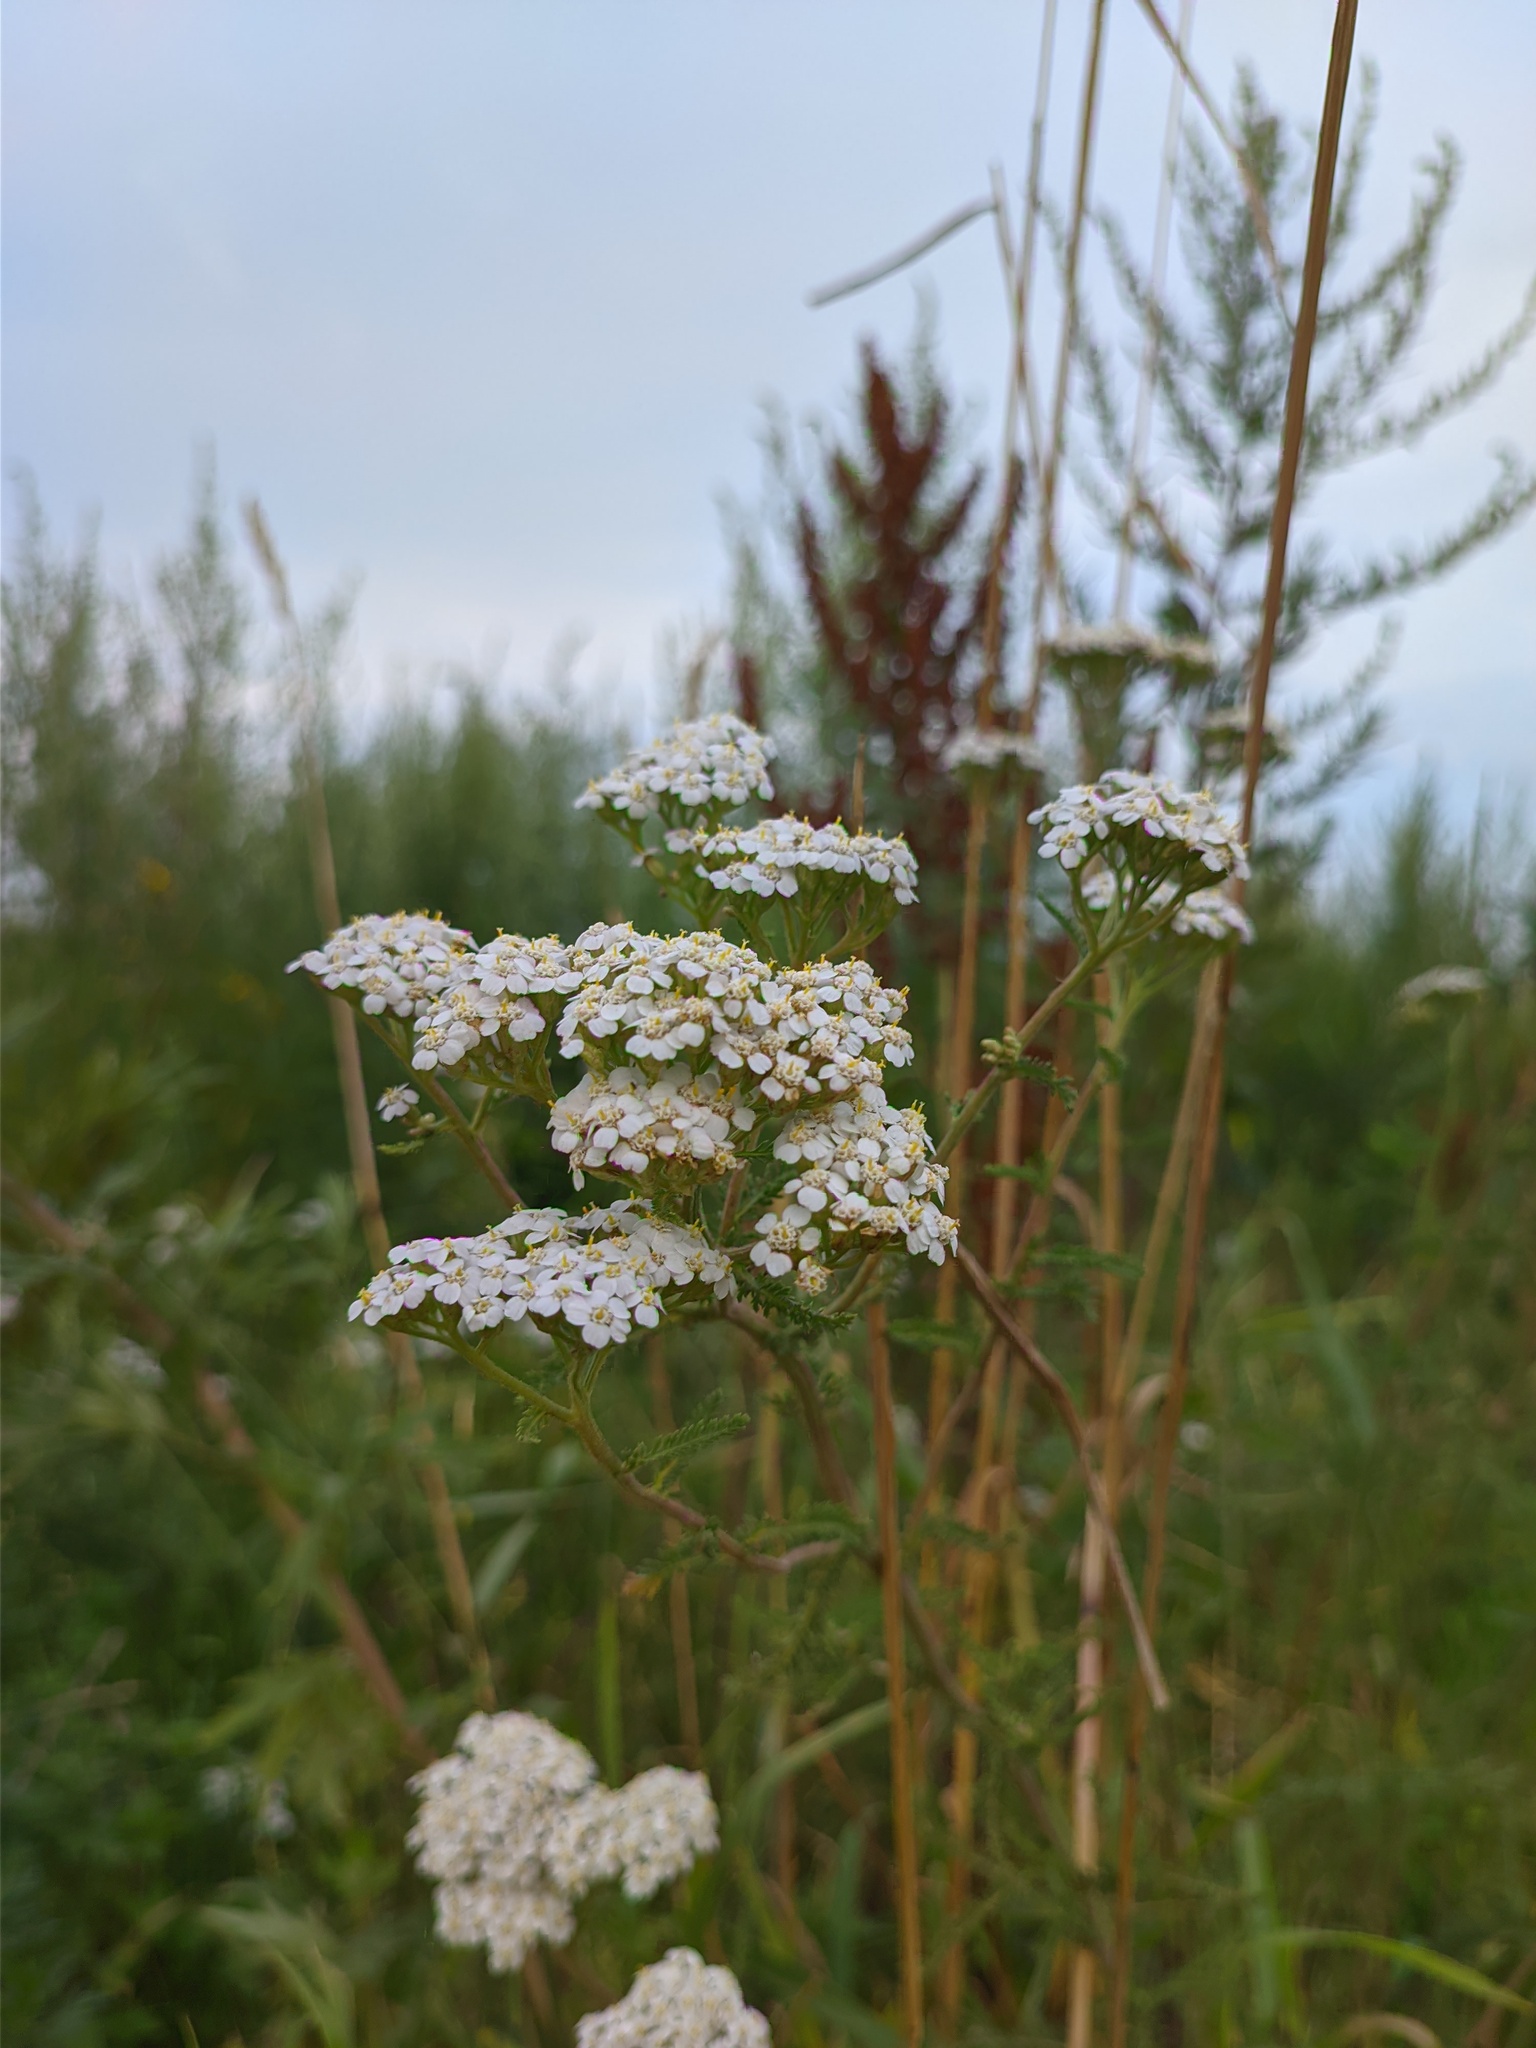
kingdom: Plantae
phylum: Tracheophyta
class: Magnoliopsida
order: Asterales
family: Asteraceae
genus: Achillea
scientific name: Achillea millefolium
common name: Yarrow
